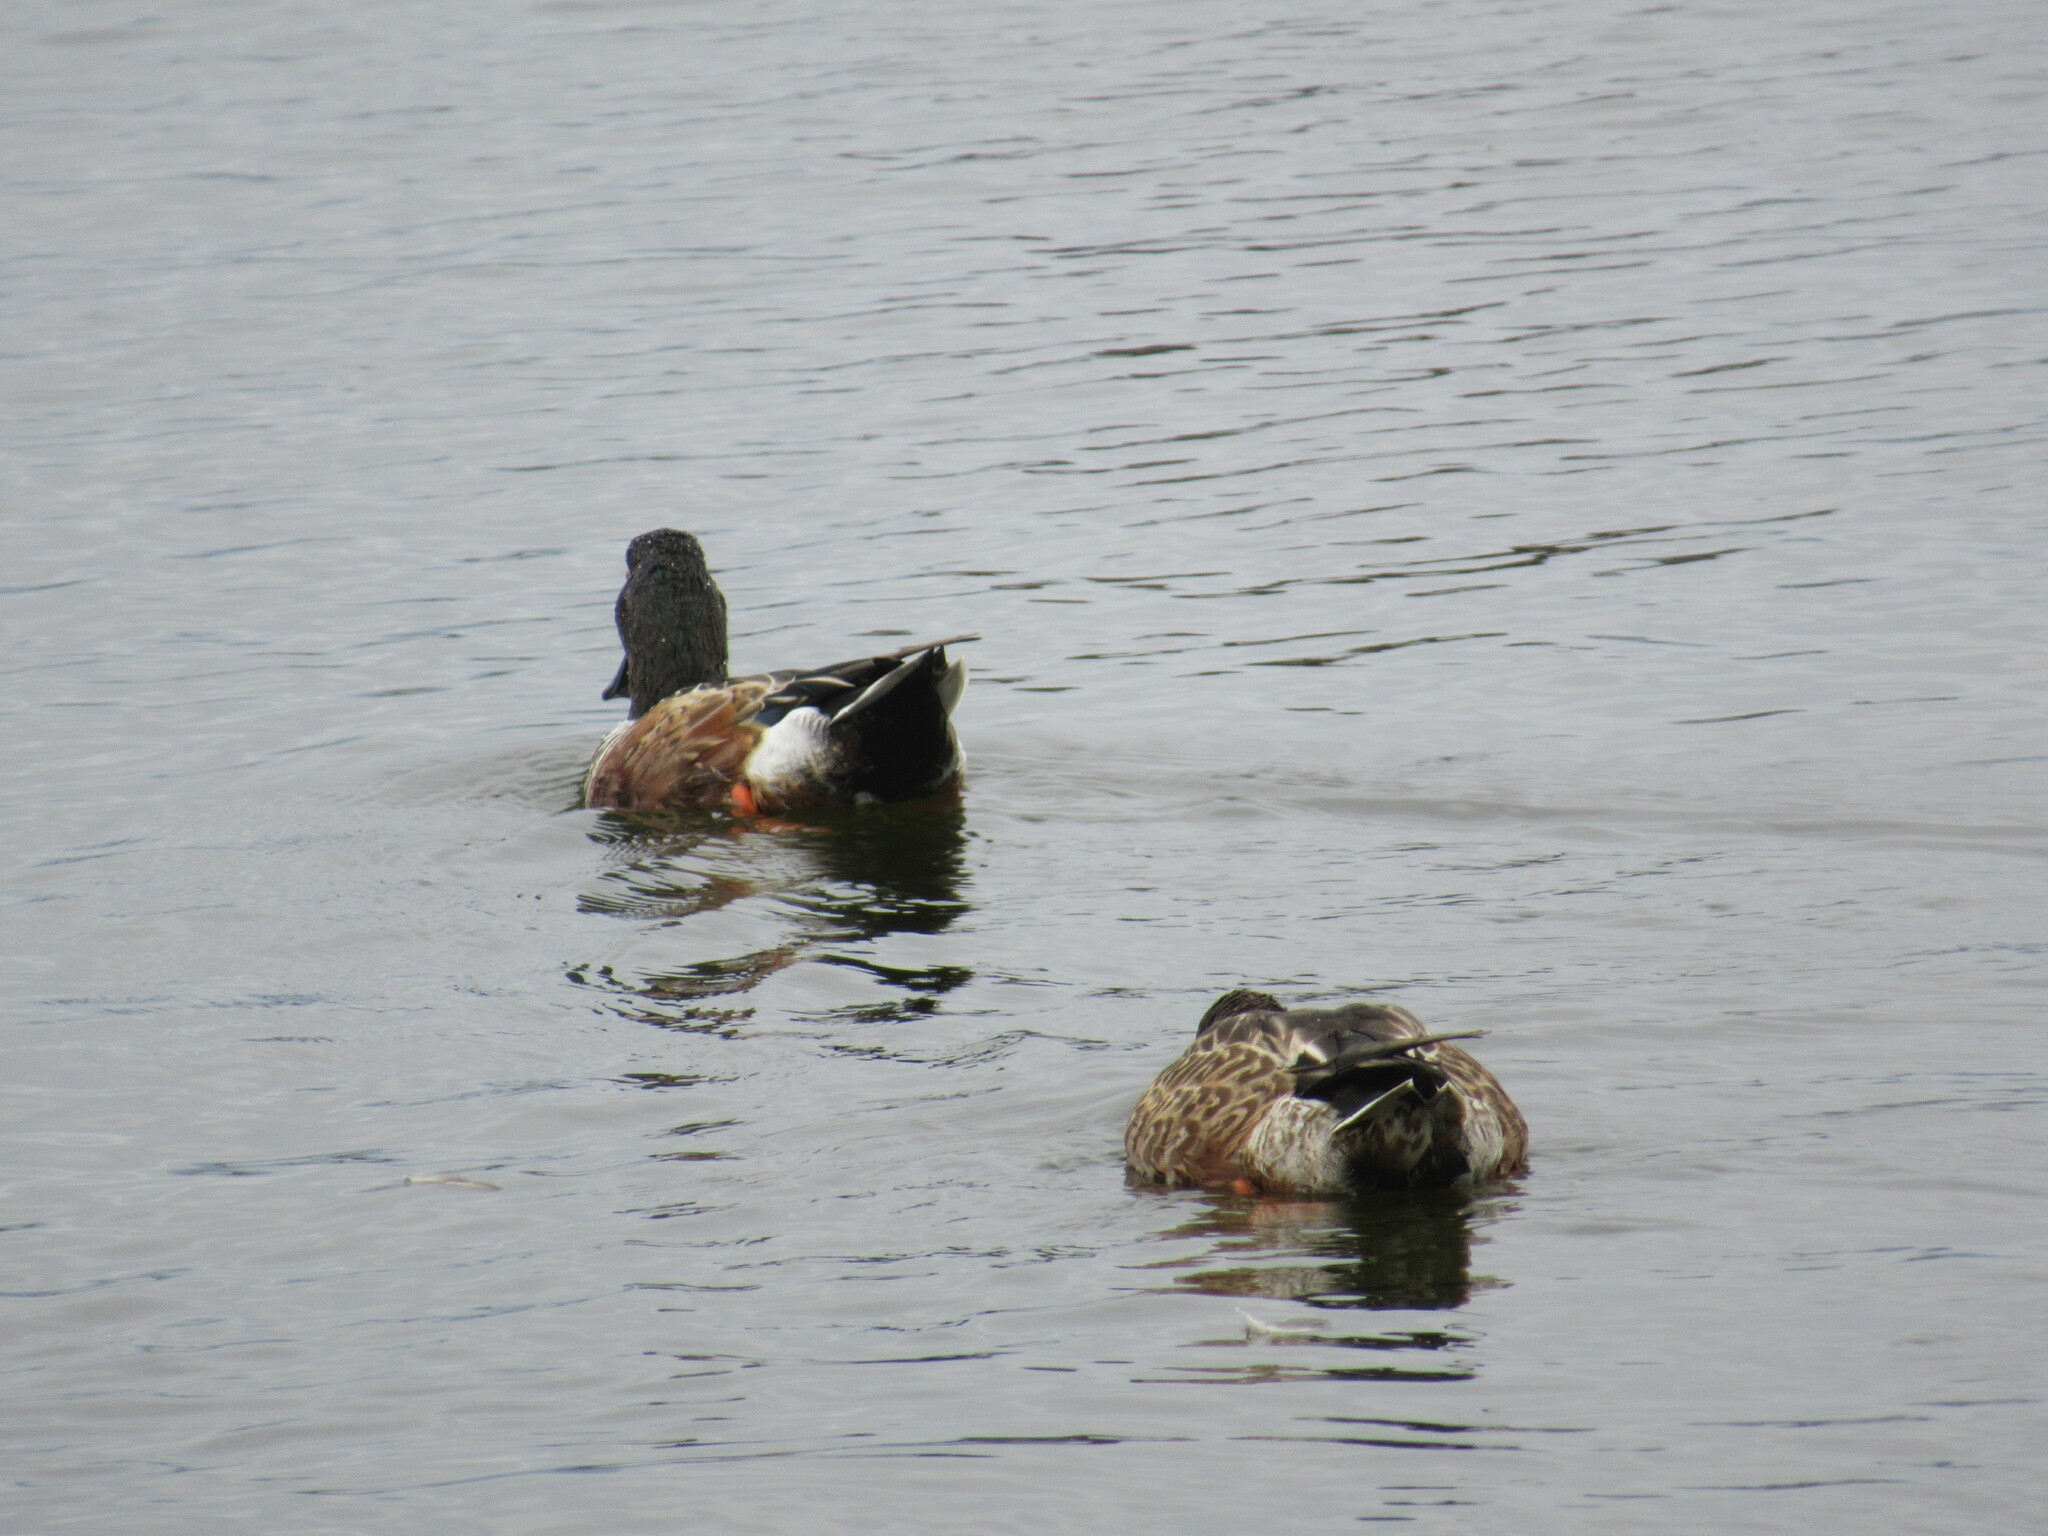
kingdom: Animalia
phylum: Chordata
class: Aves
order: Anseriformes
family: Anatidae
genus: Spatula
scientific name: Spatula clypeata
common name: Northern shoveler
